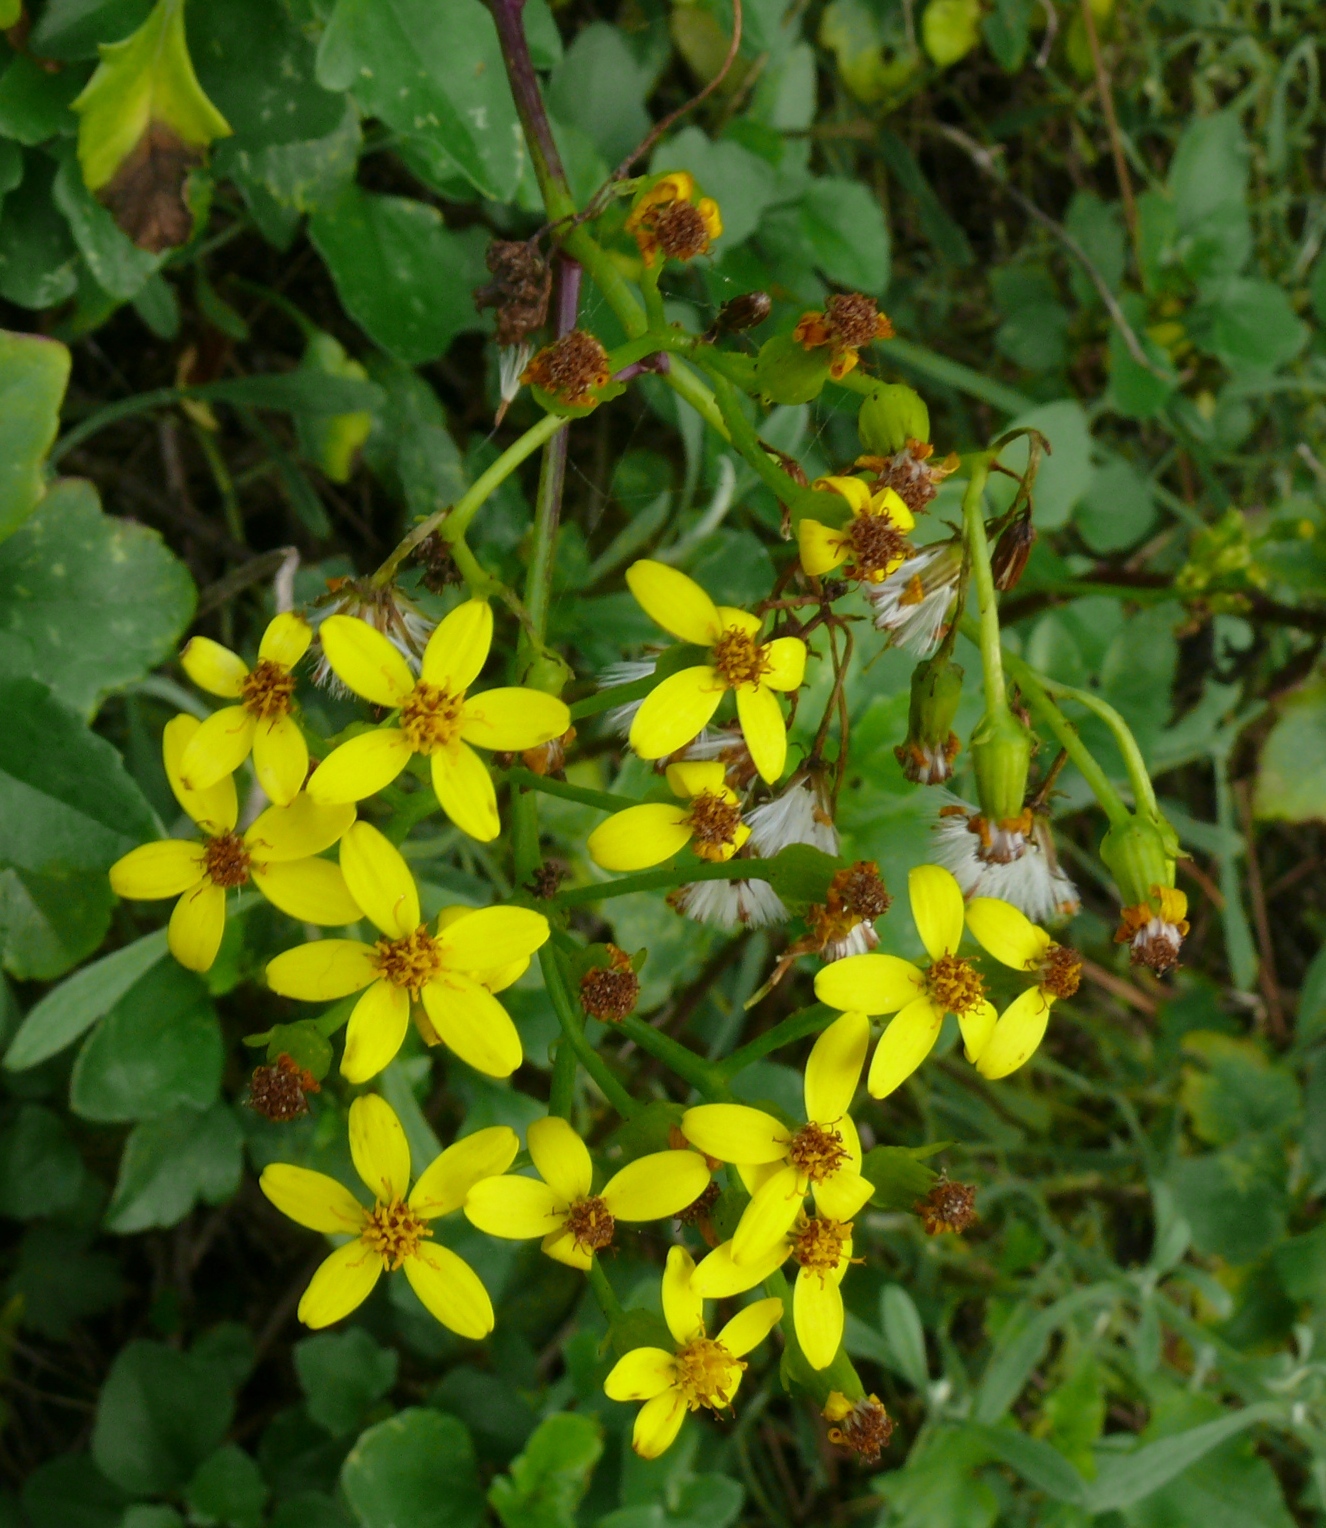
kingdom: Plantae
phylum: Tracheophyta
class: Magnoliopsida
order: Asterales
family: Asteraceae
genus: Senecio
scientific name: Senecio angulatus
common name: Climbing groundsel
